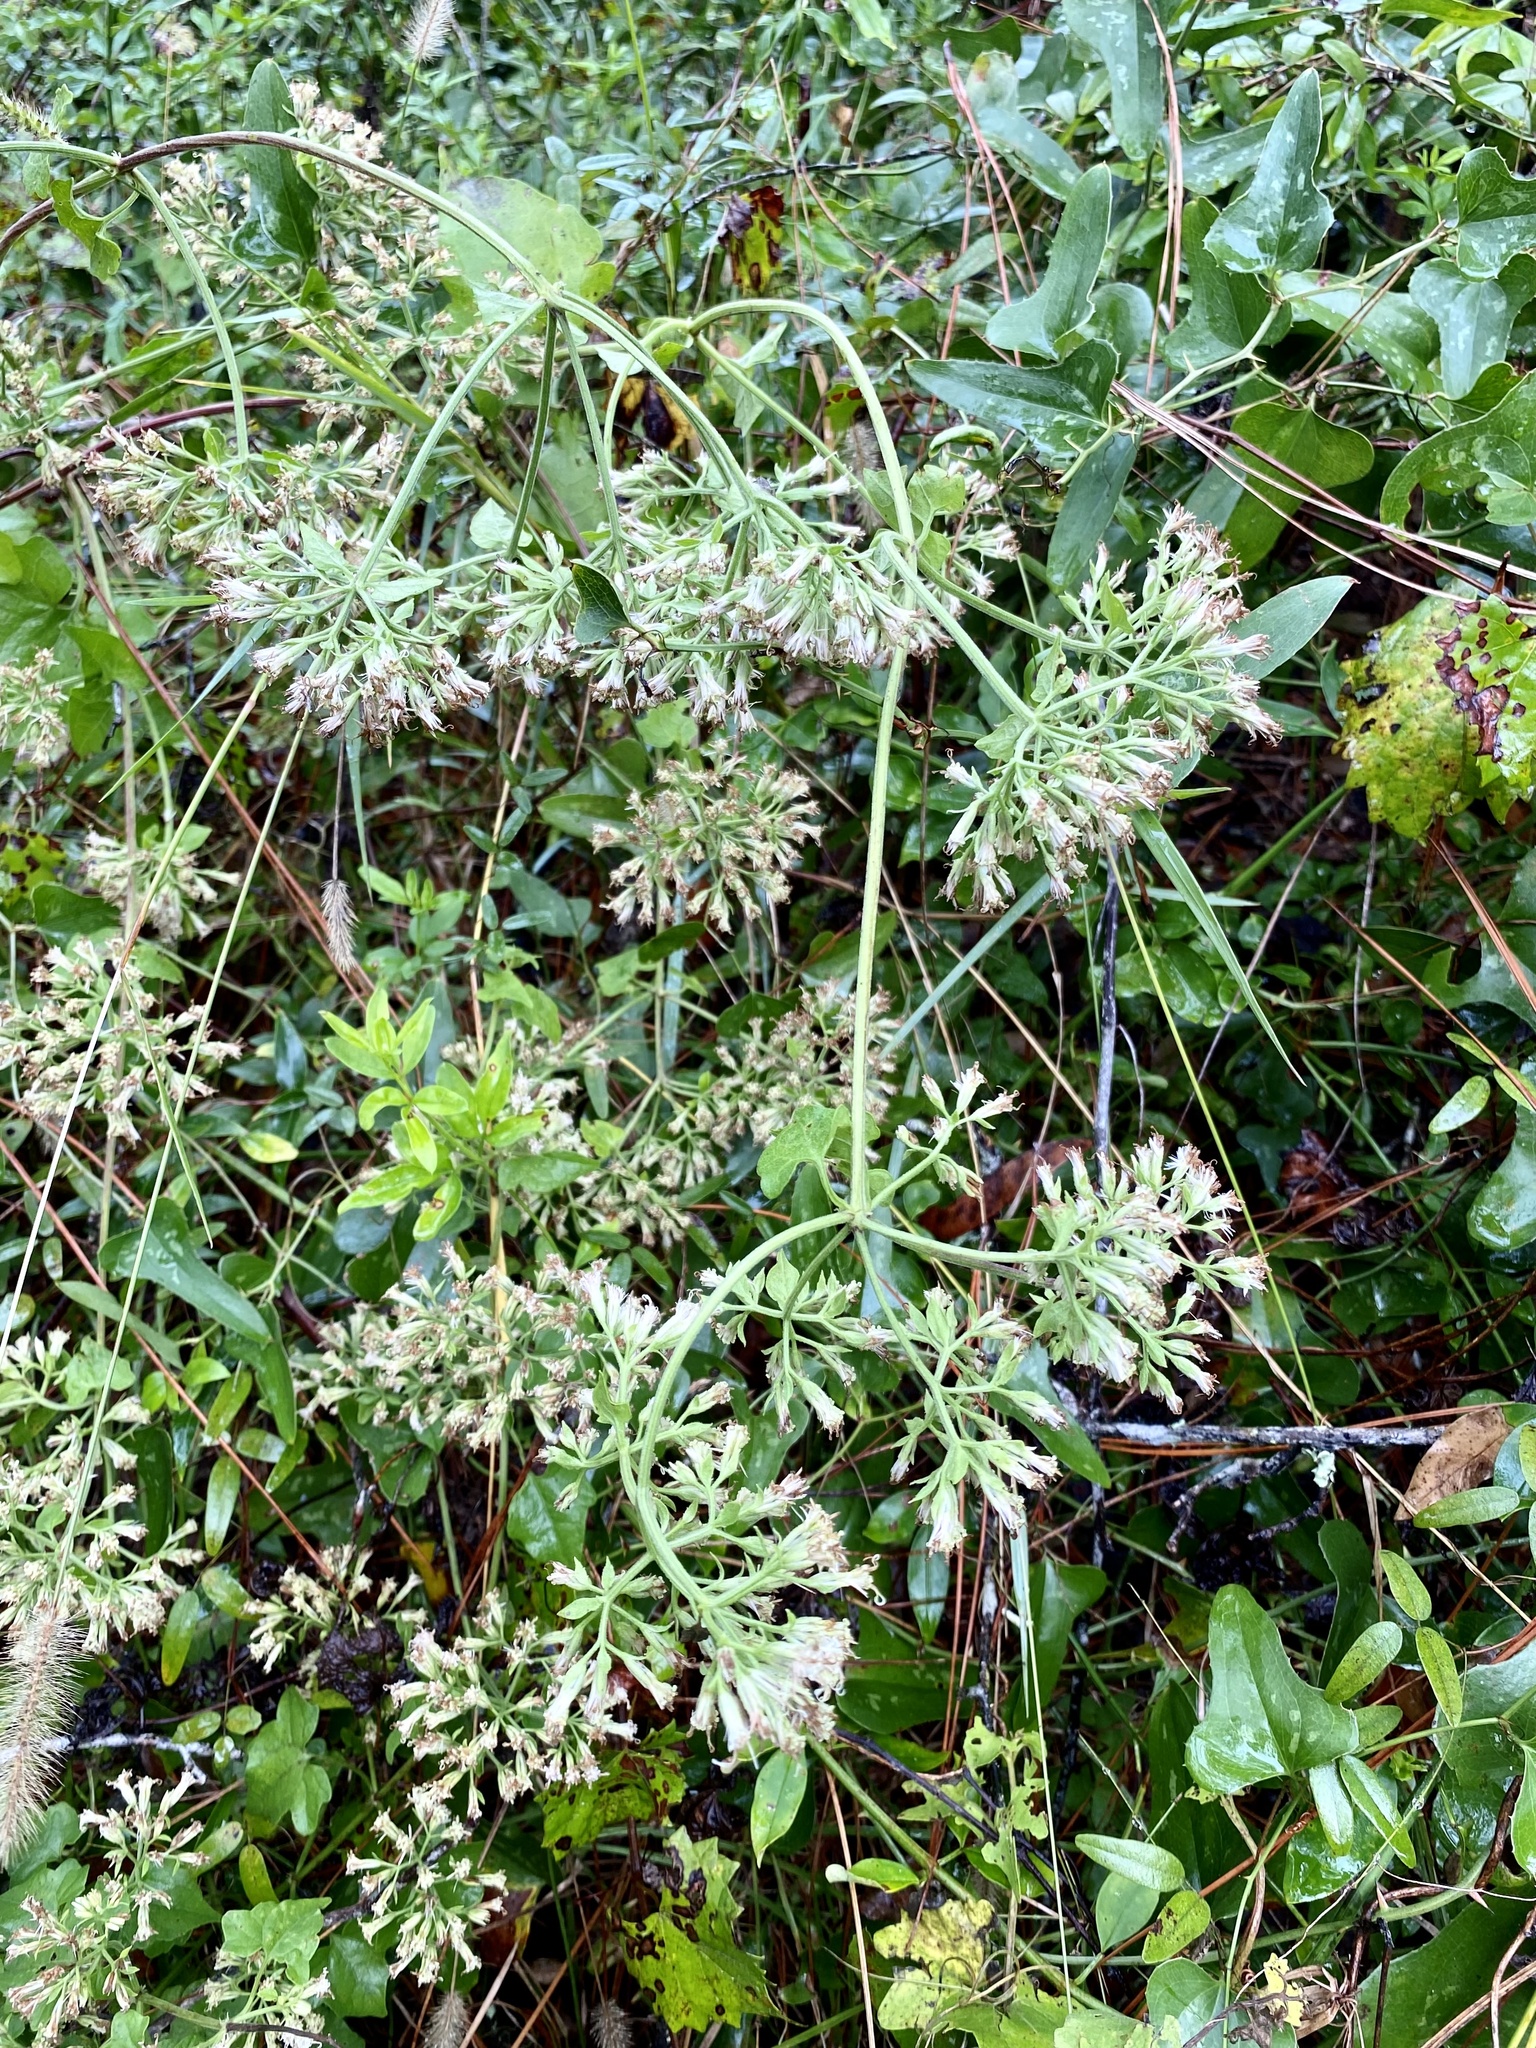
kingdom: Plantae
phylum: Tracheophyta
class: Magnoliopsida
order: Asterales
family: Asteraceae
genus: Mikania
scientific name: Mikania scandens
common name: Climbing hempvine
